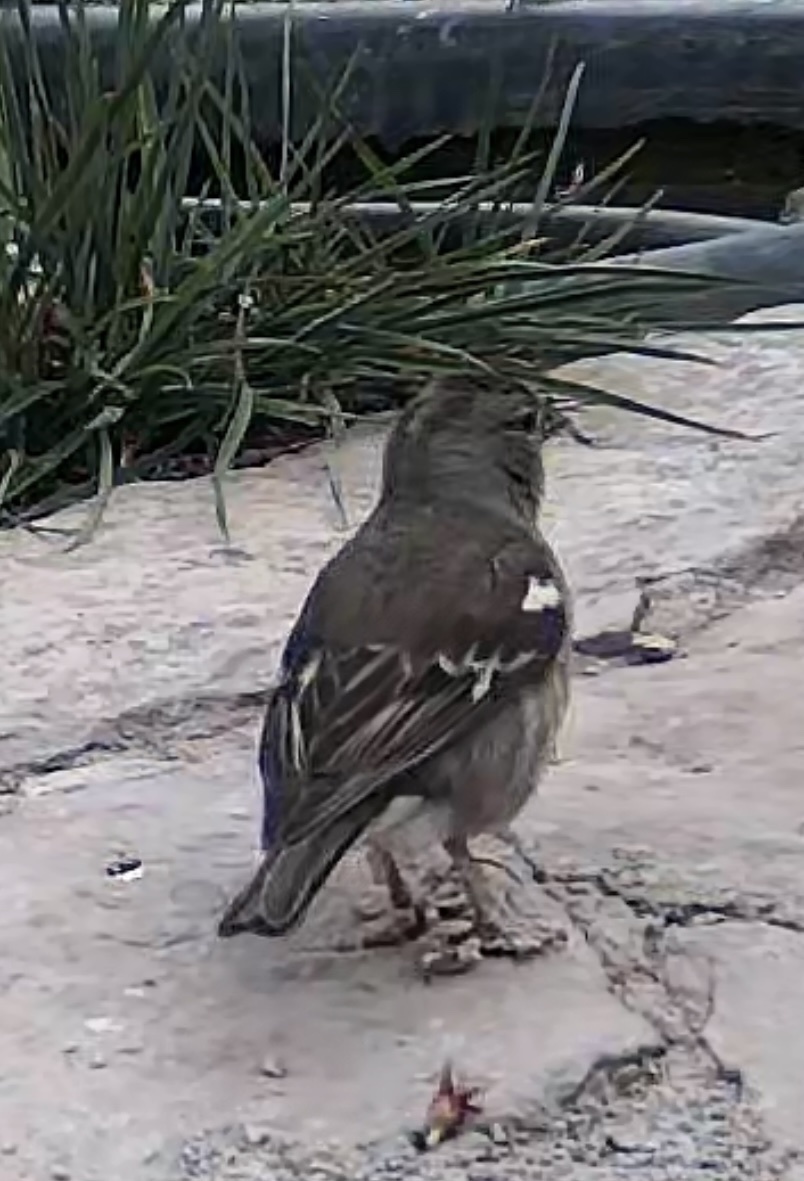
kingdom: Animalia
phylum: Chordata
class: Aves
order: Passeriformes
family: Fringillidae
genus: Fringilla
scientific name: Fringilla coelebs
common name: Common chaffinch
